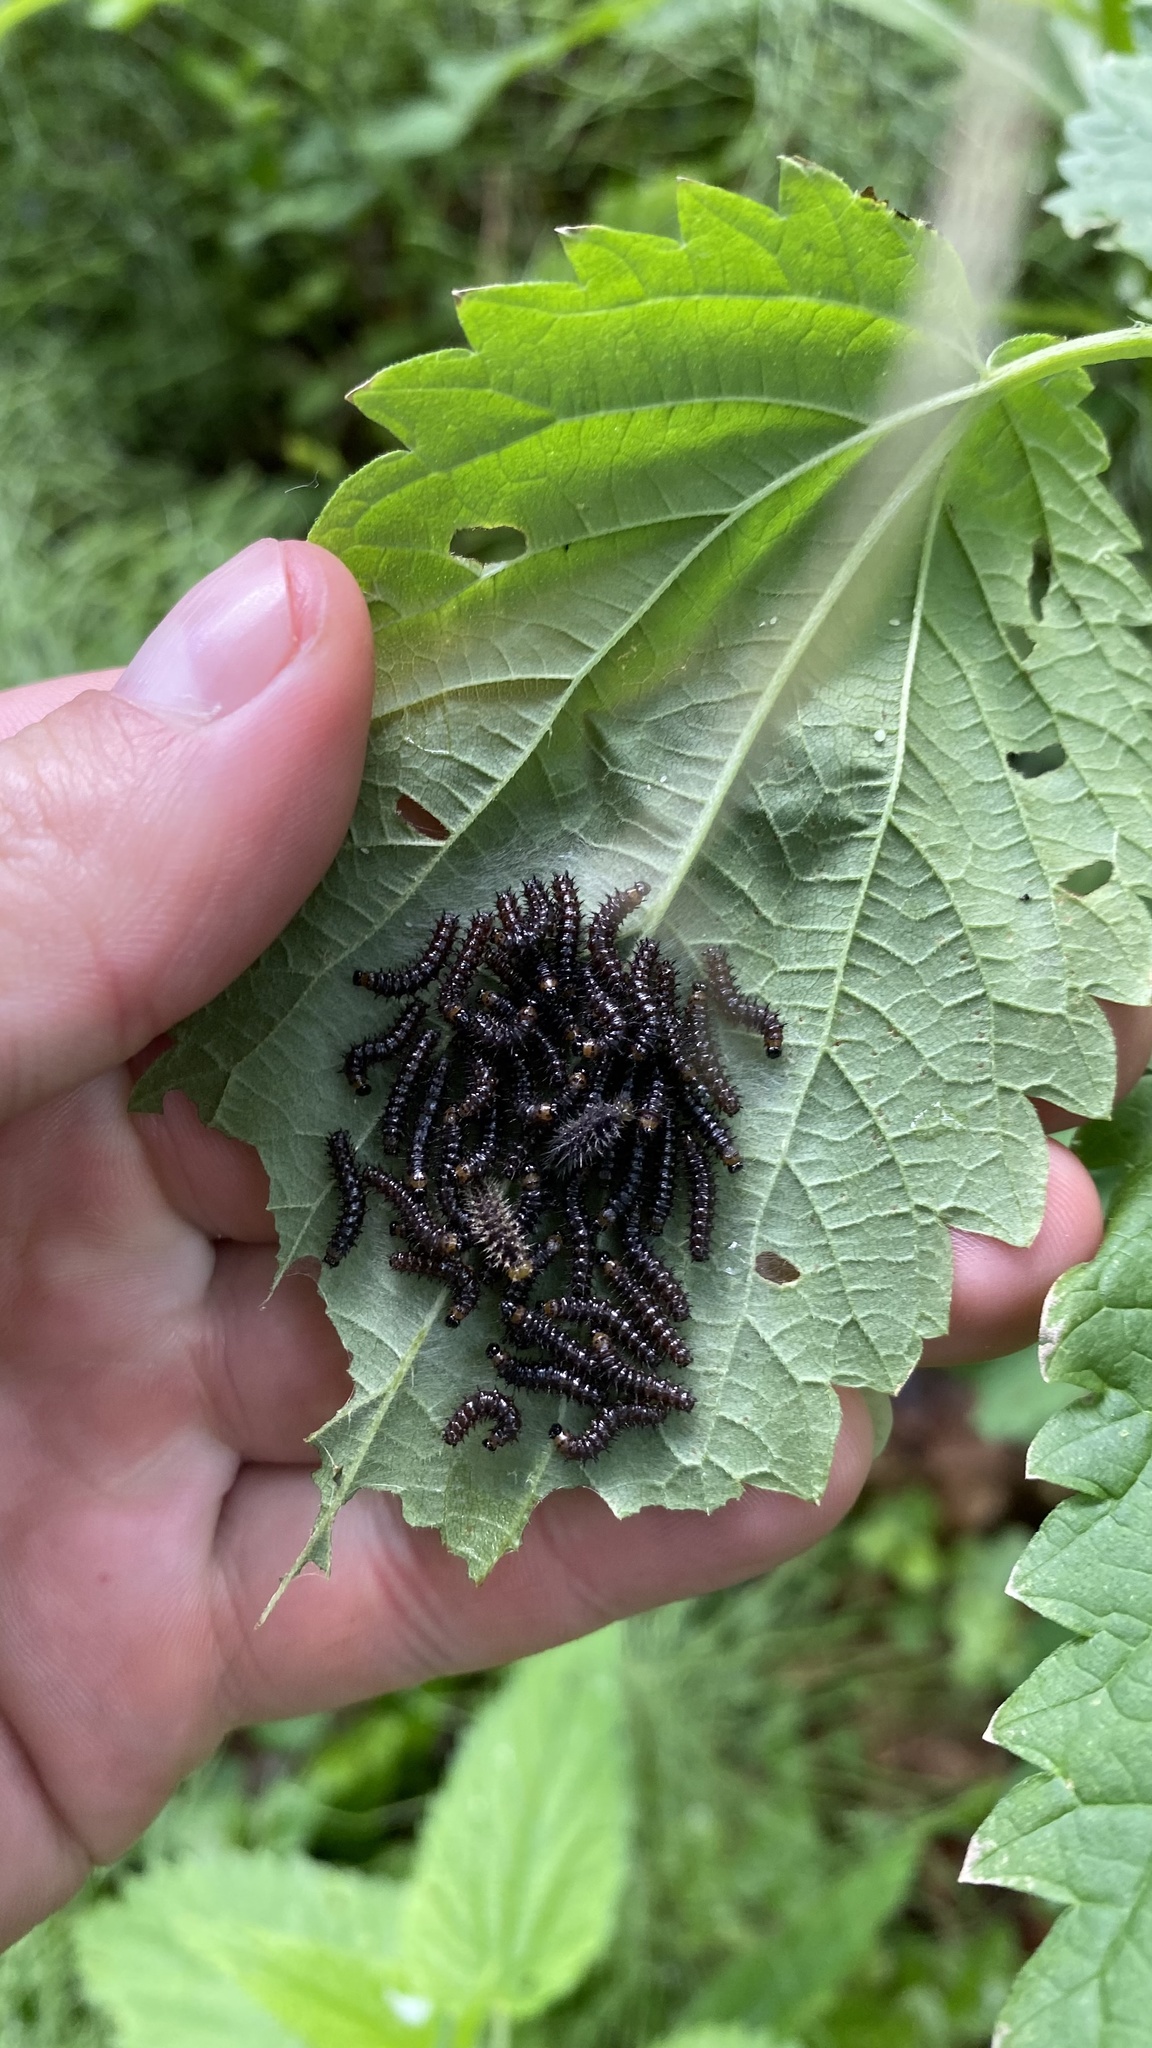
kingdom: Animalia
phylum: Arthropoda
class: Insecta
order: Lepidoptera
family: Nymphalidae
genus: Aglais
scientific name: Aglais io
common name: Peacock
